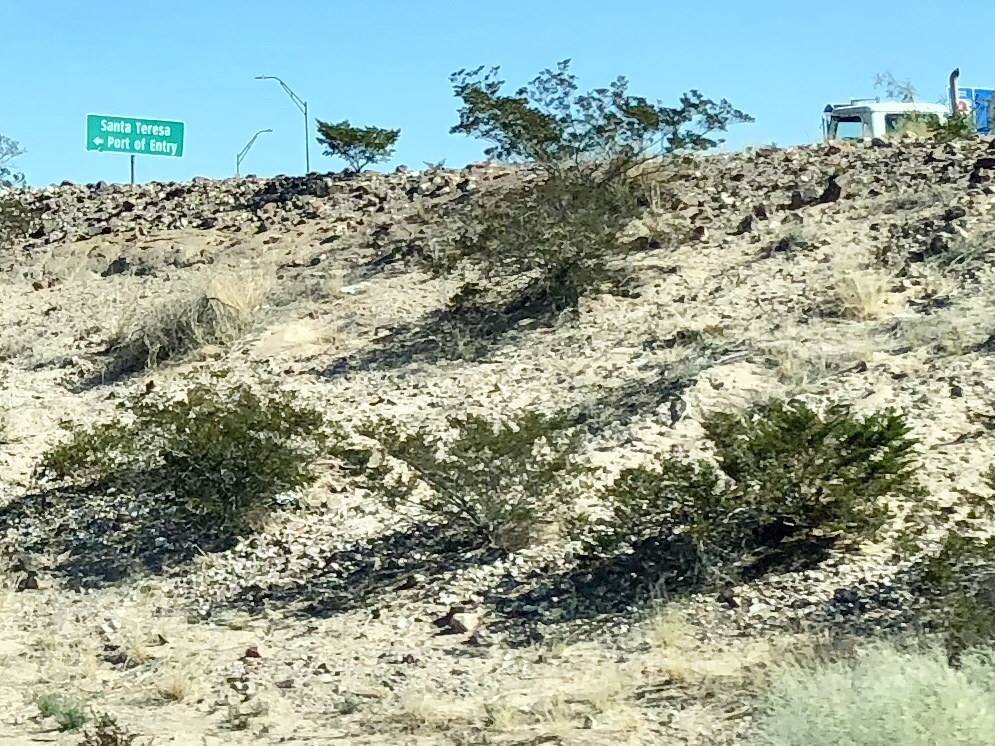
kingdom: Plantae
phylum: Tracheophyta
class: Magnoliopsida
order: Zygophyllales
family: Zygophyllaceae
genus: Larrea
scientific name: Larrea tridentata
